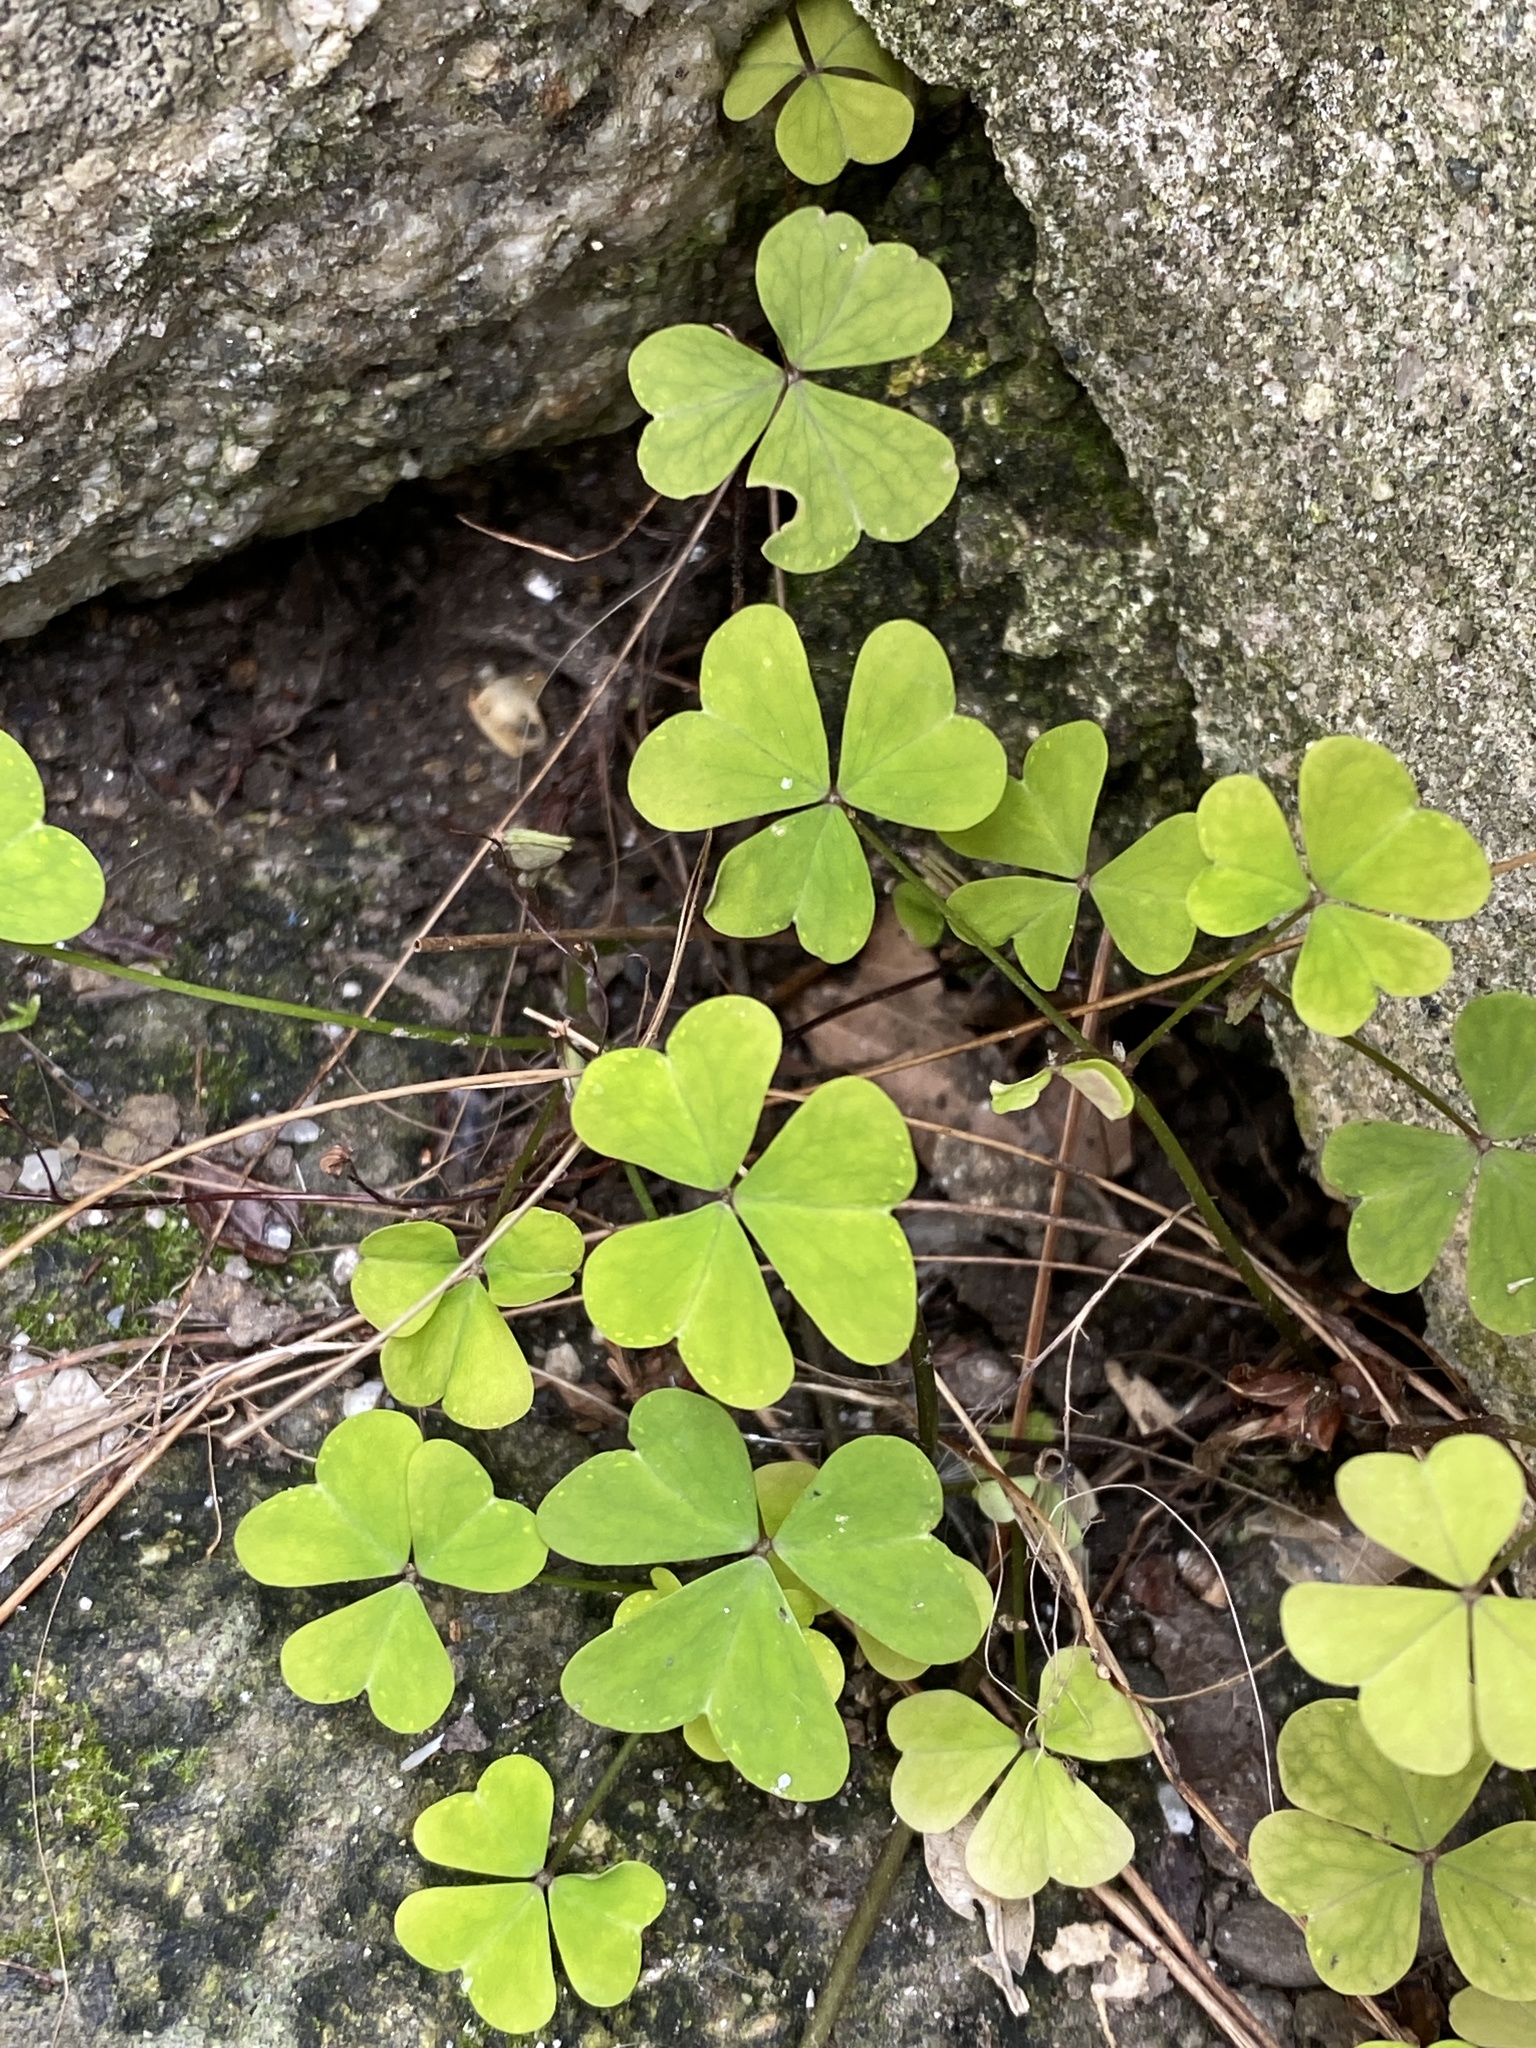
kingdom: Plantae
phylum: Tracheophyta
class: Magnoliopsida
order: Oxalidales
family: Oxalidaceae
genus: Oxalis
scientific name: Oxalis incarnata
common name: Pale pink-sorrel
